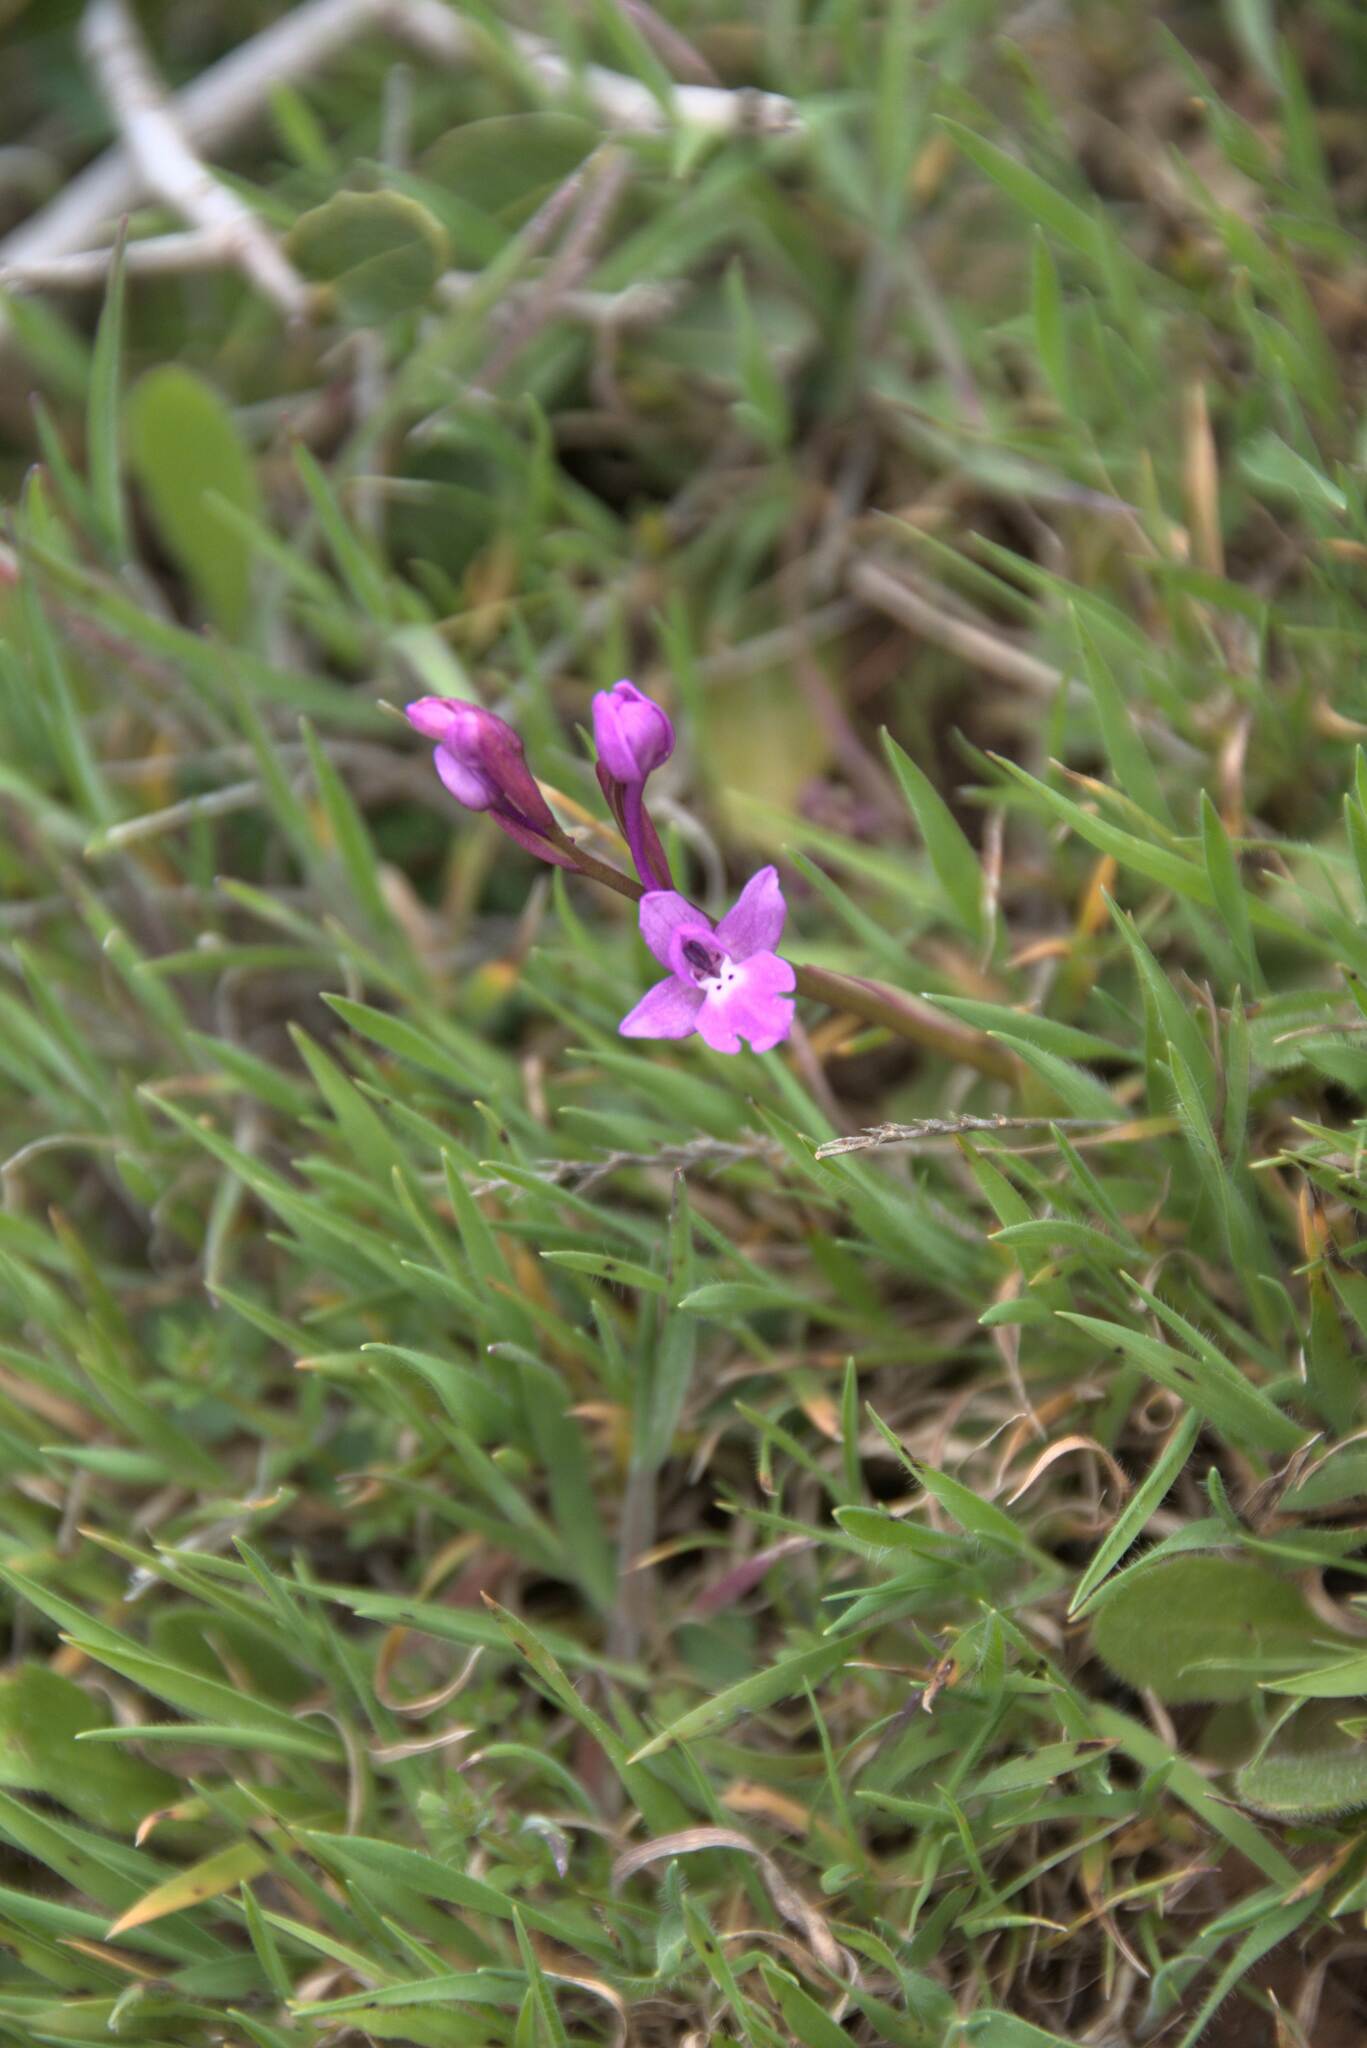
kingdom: Plantae
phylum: Tracheophyta
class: Liliopsida
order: Asparagales
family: Orchidaceae
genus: Orchis
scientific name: Orchis quadripunctata
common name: Four-spotted orchid
